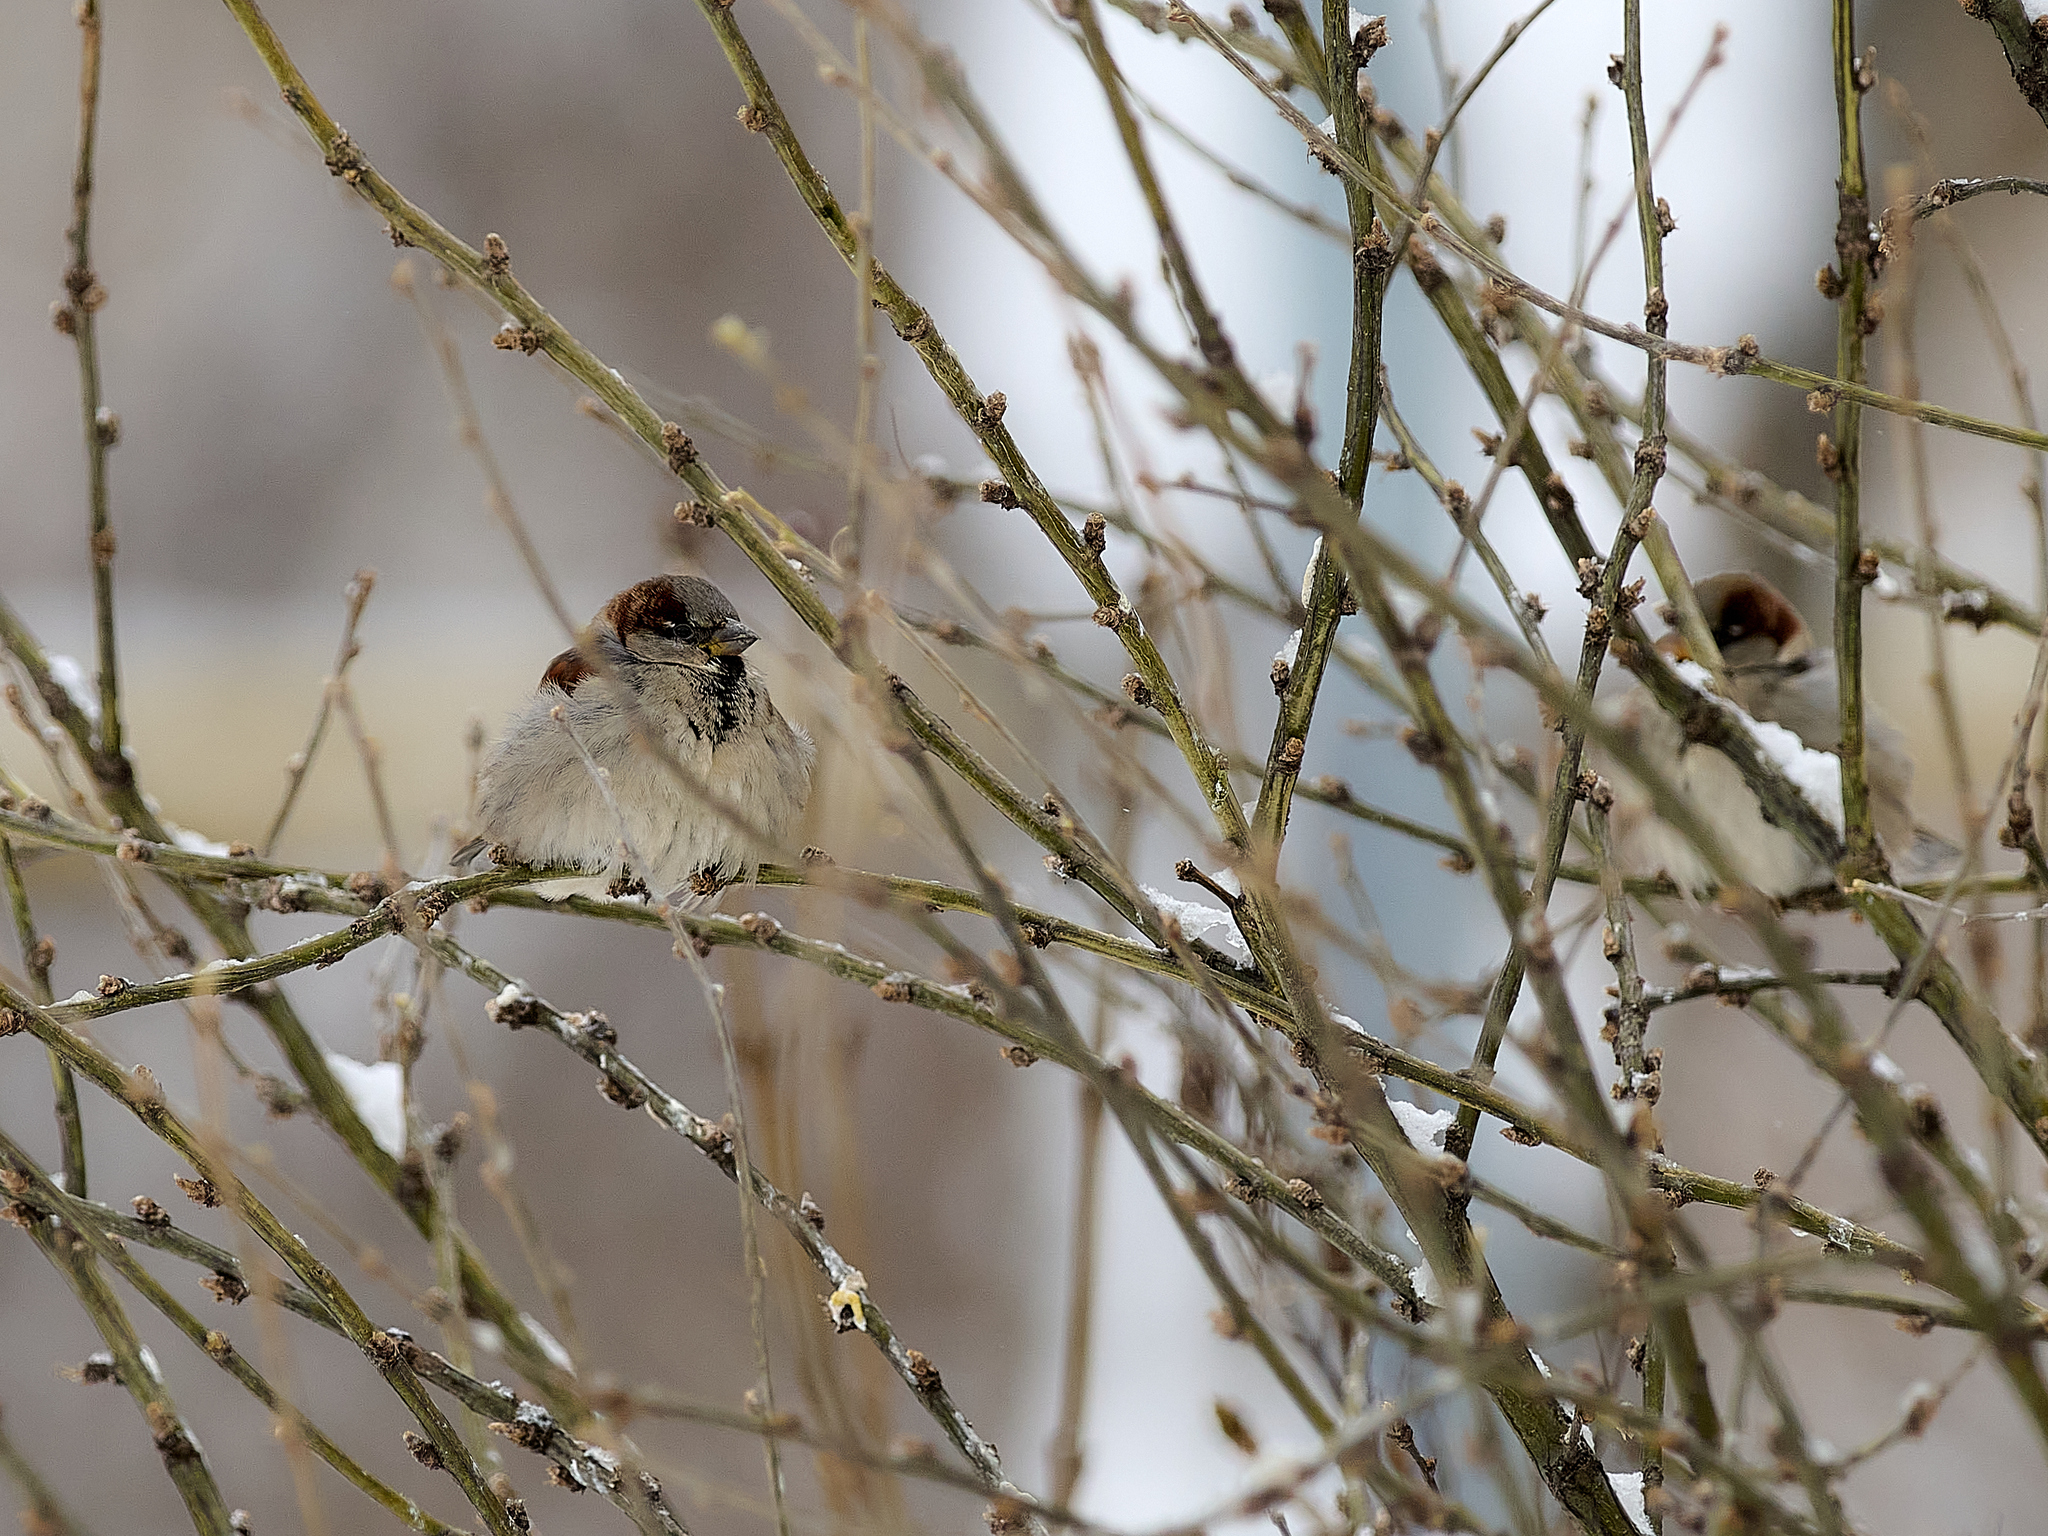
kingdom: Animalia
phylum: Chordata
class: Aves
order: Passeriformes
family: Passeridae
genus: Passer
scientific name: Passer domesticus
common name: House sparrow
